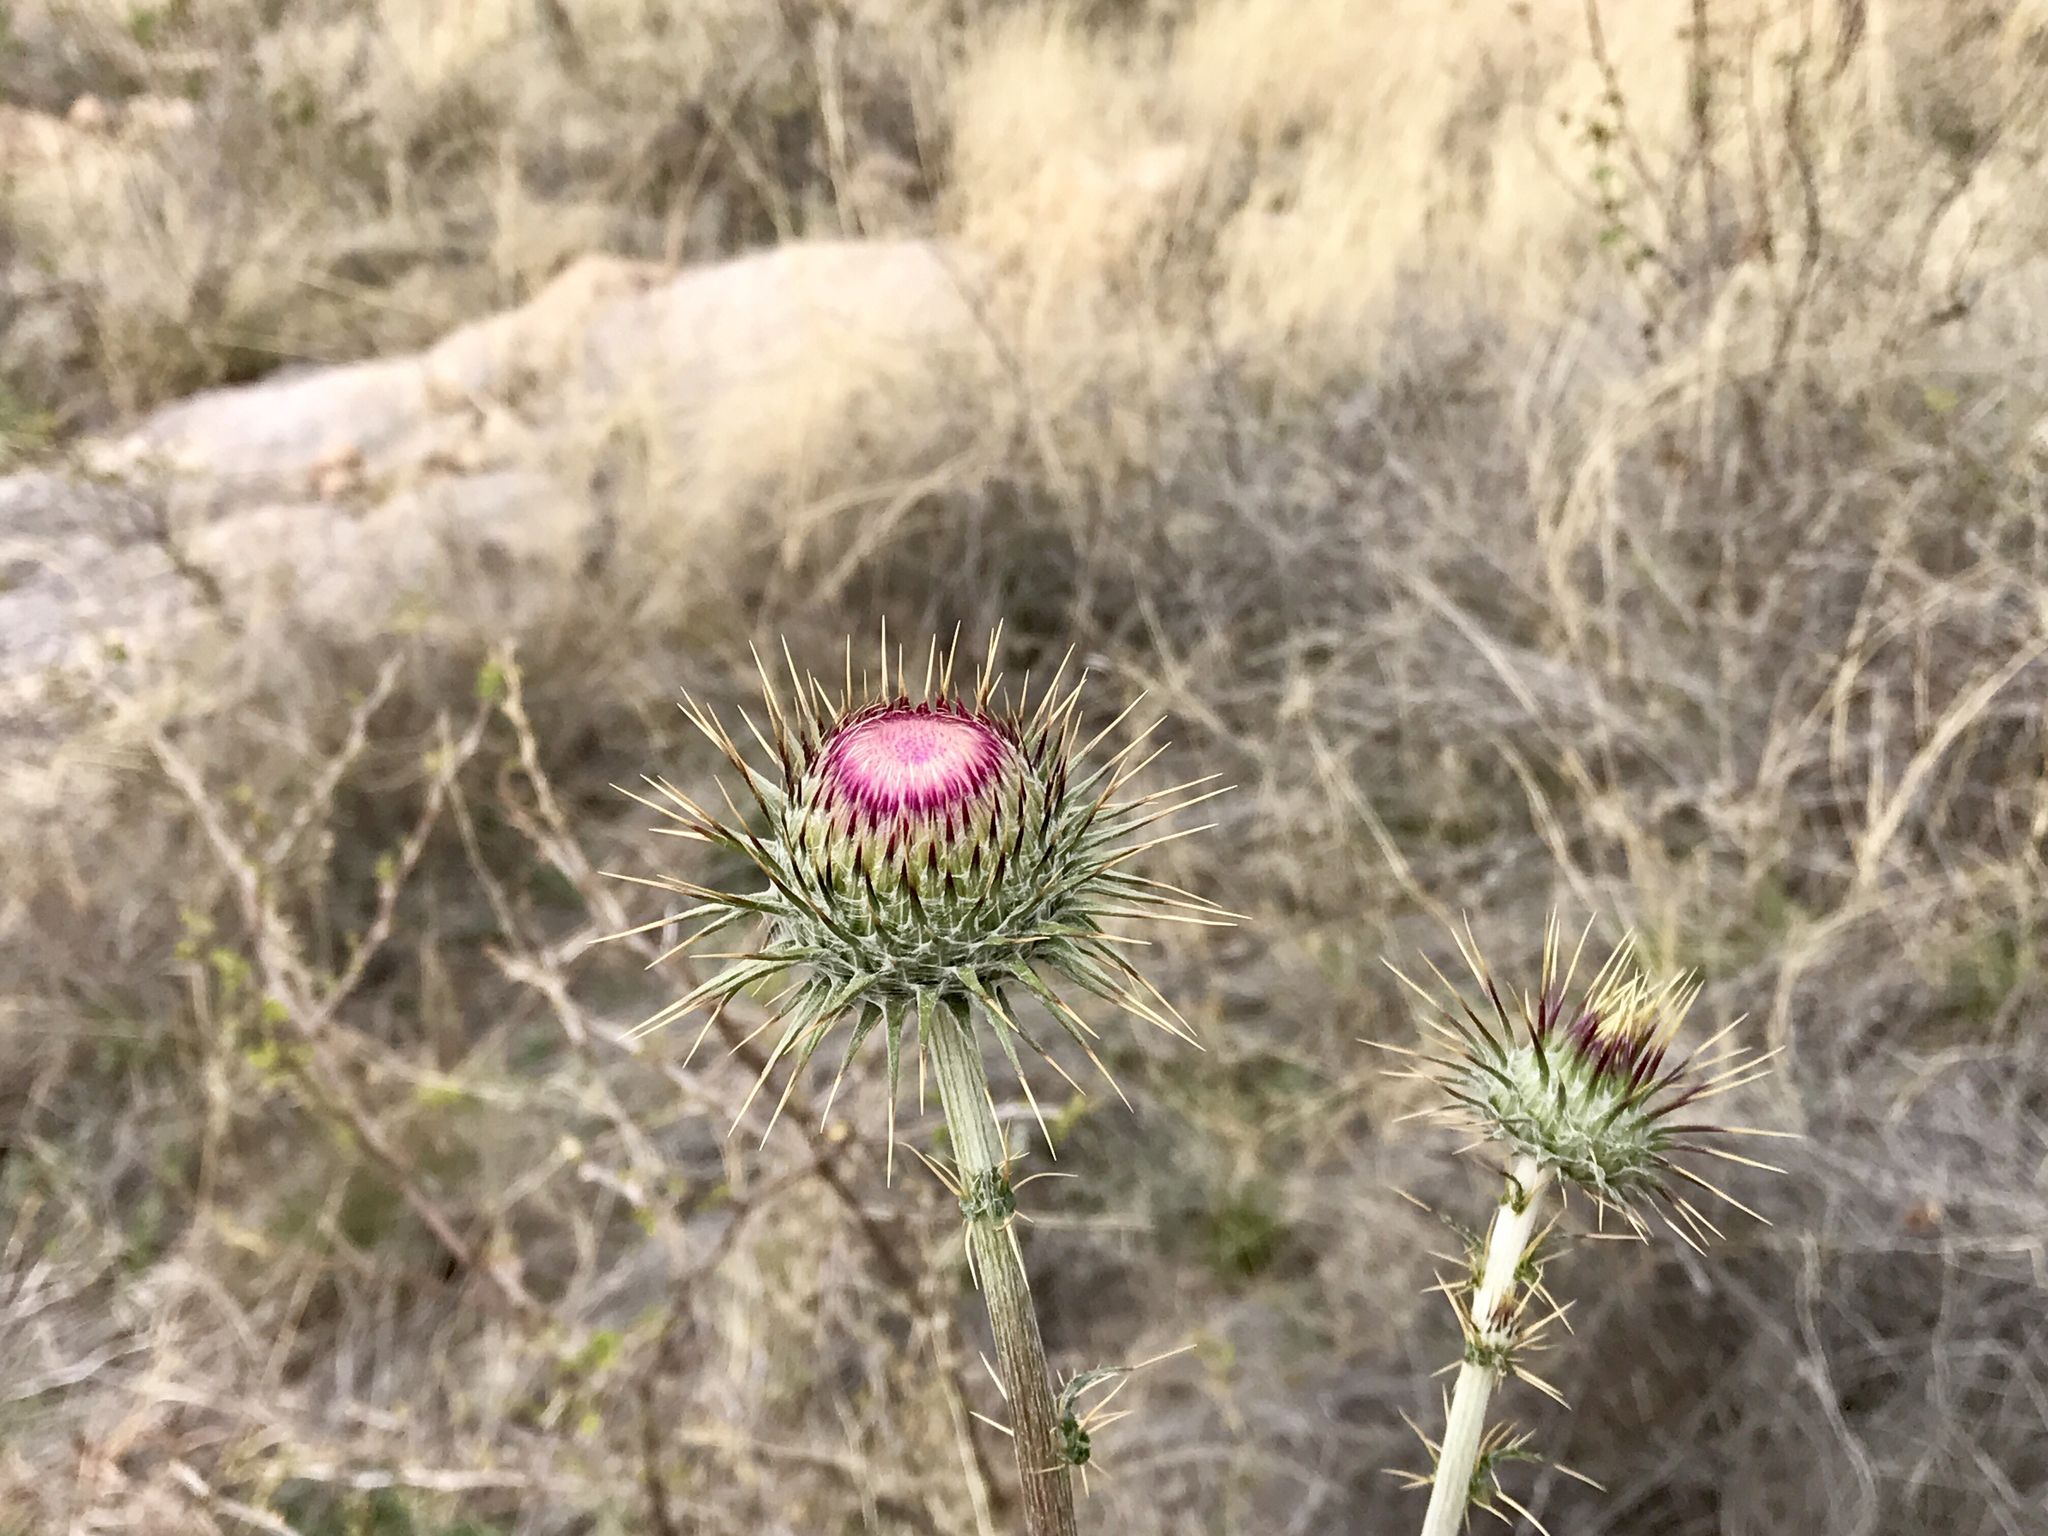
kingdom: Plantae
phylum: Tracheophyta
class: Magnoliopsida
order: Asterales
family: Asteraceae
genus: Cirsium
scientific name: Cirsium neomexicanum
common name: New mexico thistle
